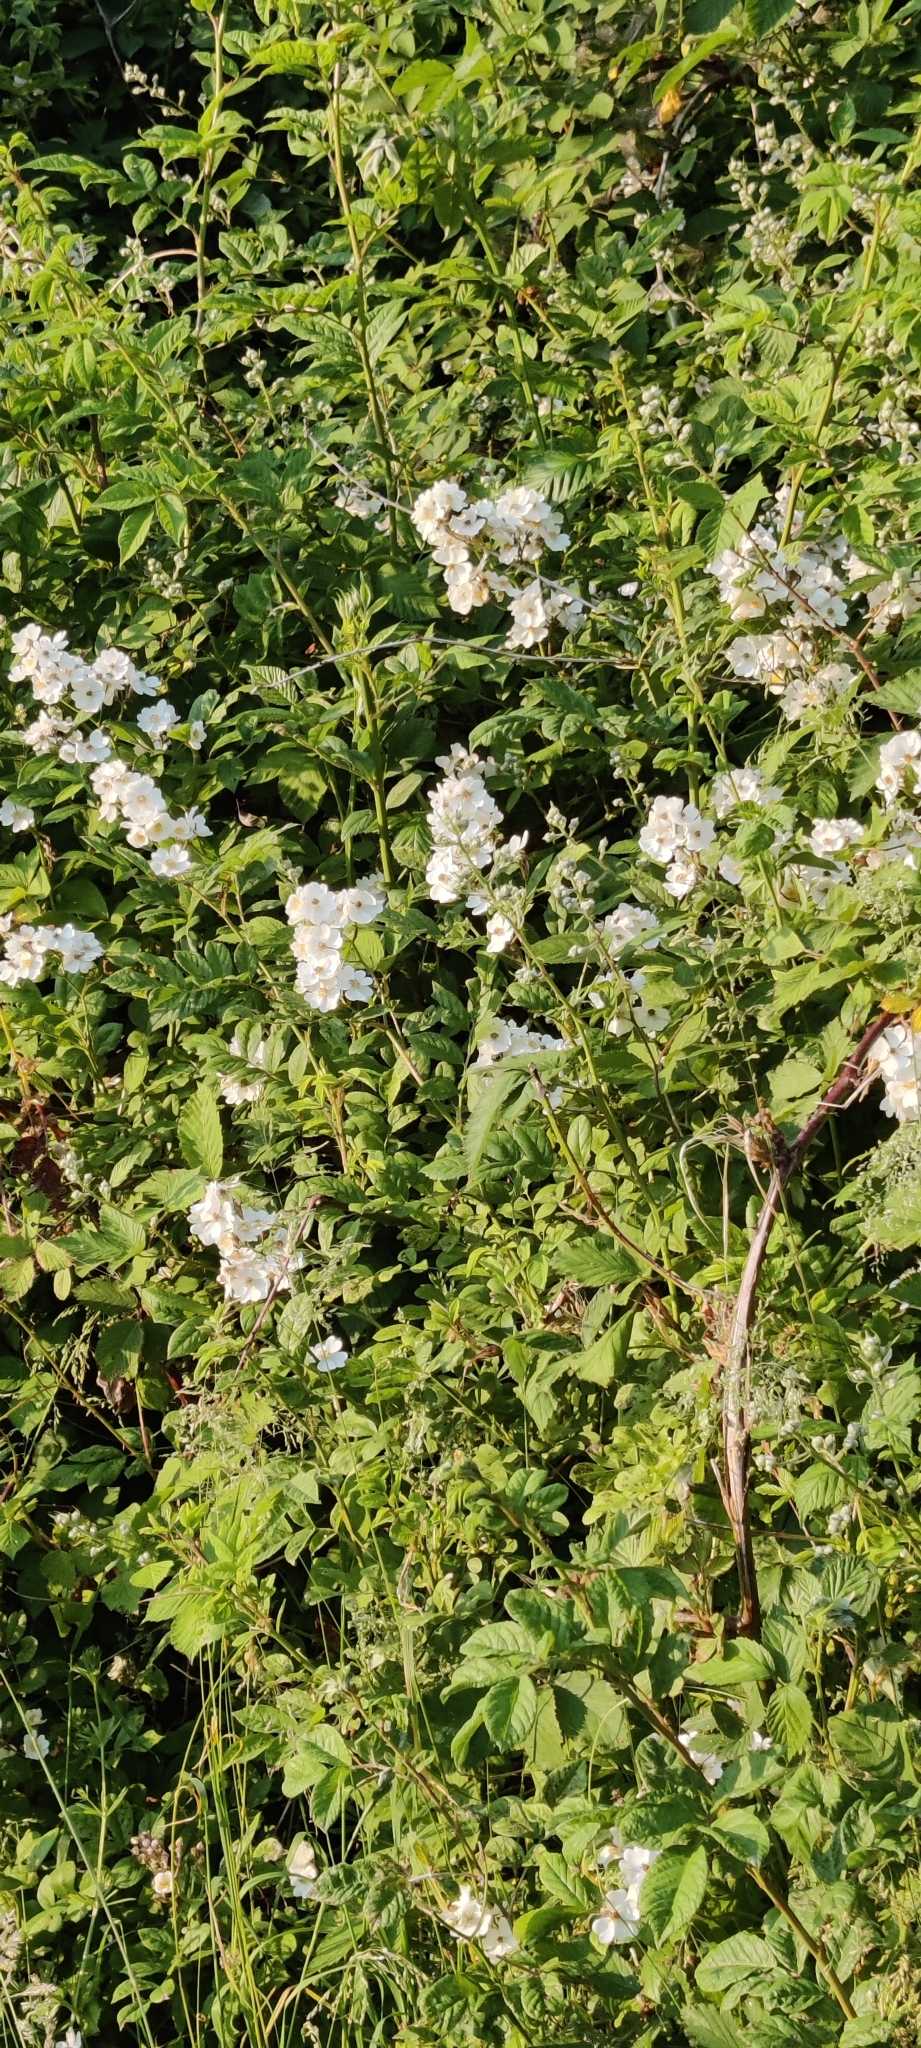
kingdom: Plantae
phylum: Tracheophyta
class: Magnoliopsida
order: Rosales
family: Rosaceae
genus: Rosa
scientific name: Rosa multiflora
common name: Multiflora rose
